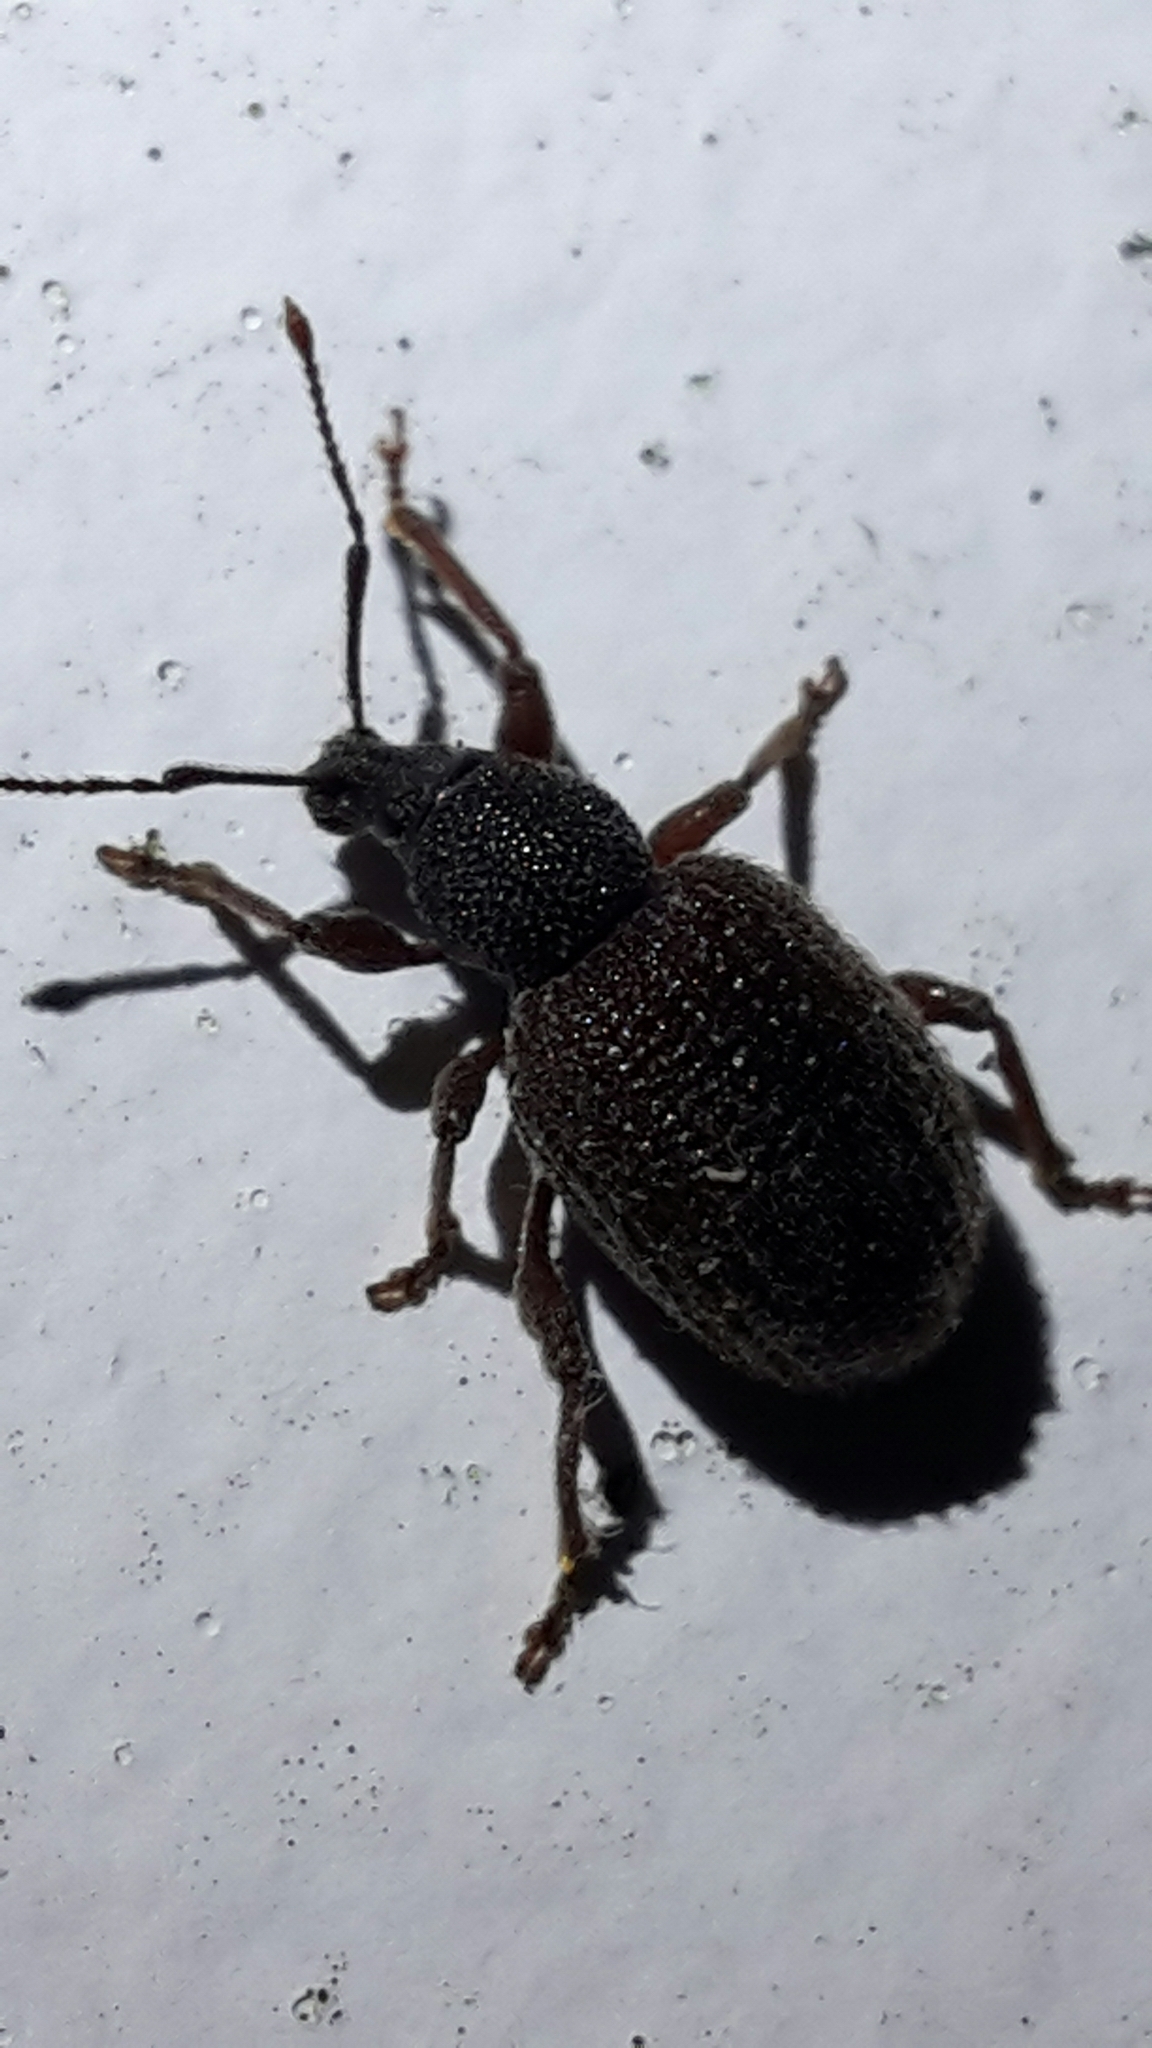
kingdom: Animalia
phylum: Arthropoda
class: Insecta
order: Coleoptera
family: Curculionidae
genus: Otiorhynchus
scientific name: Otiorhynchus rugosostriatus
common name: Weevil
